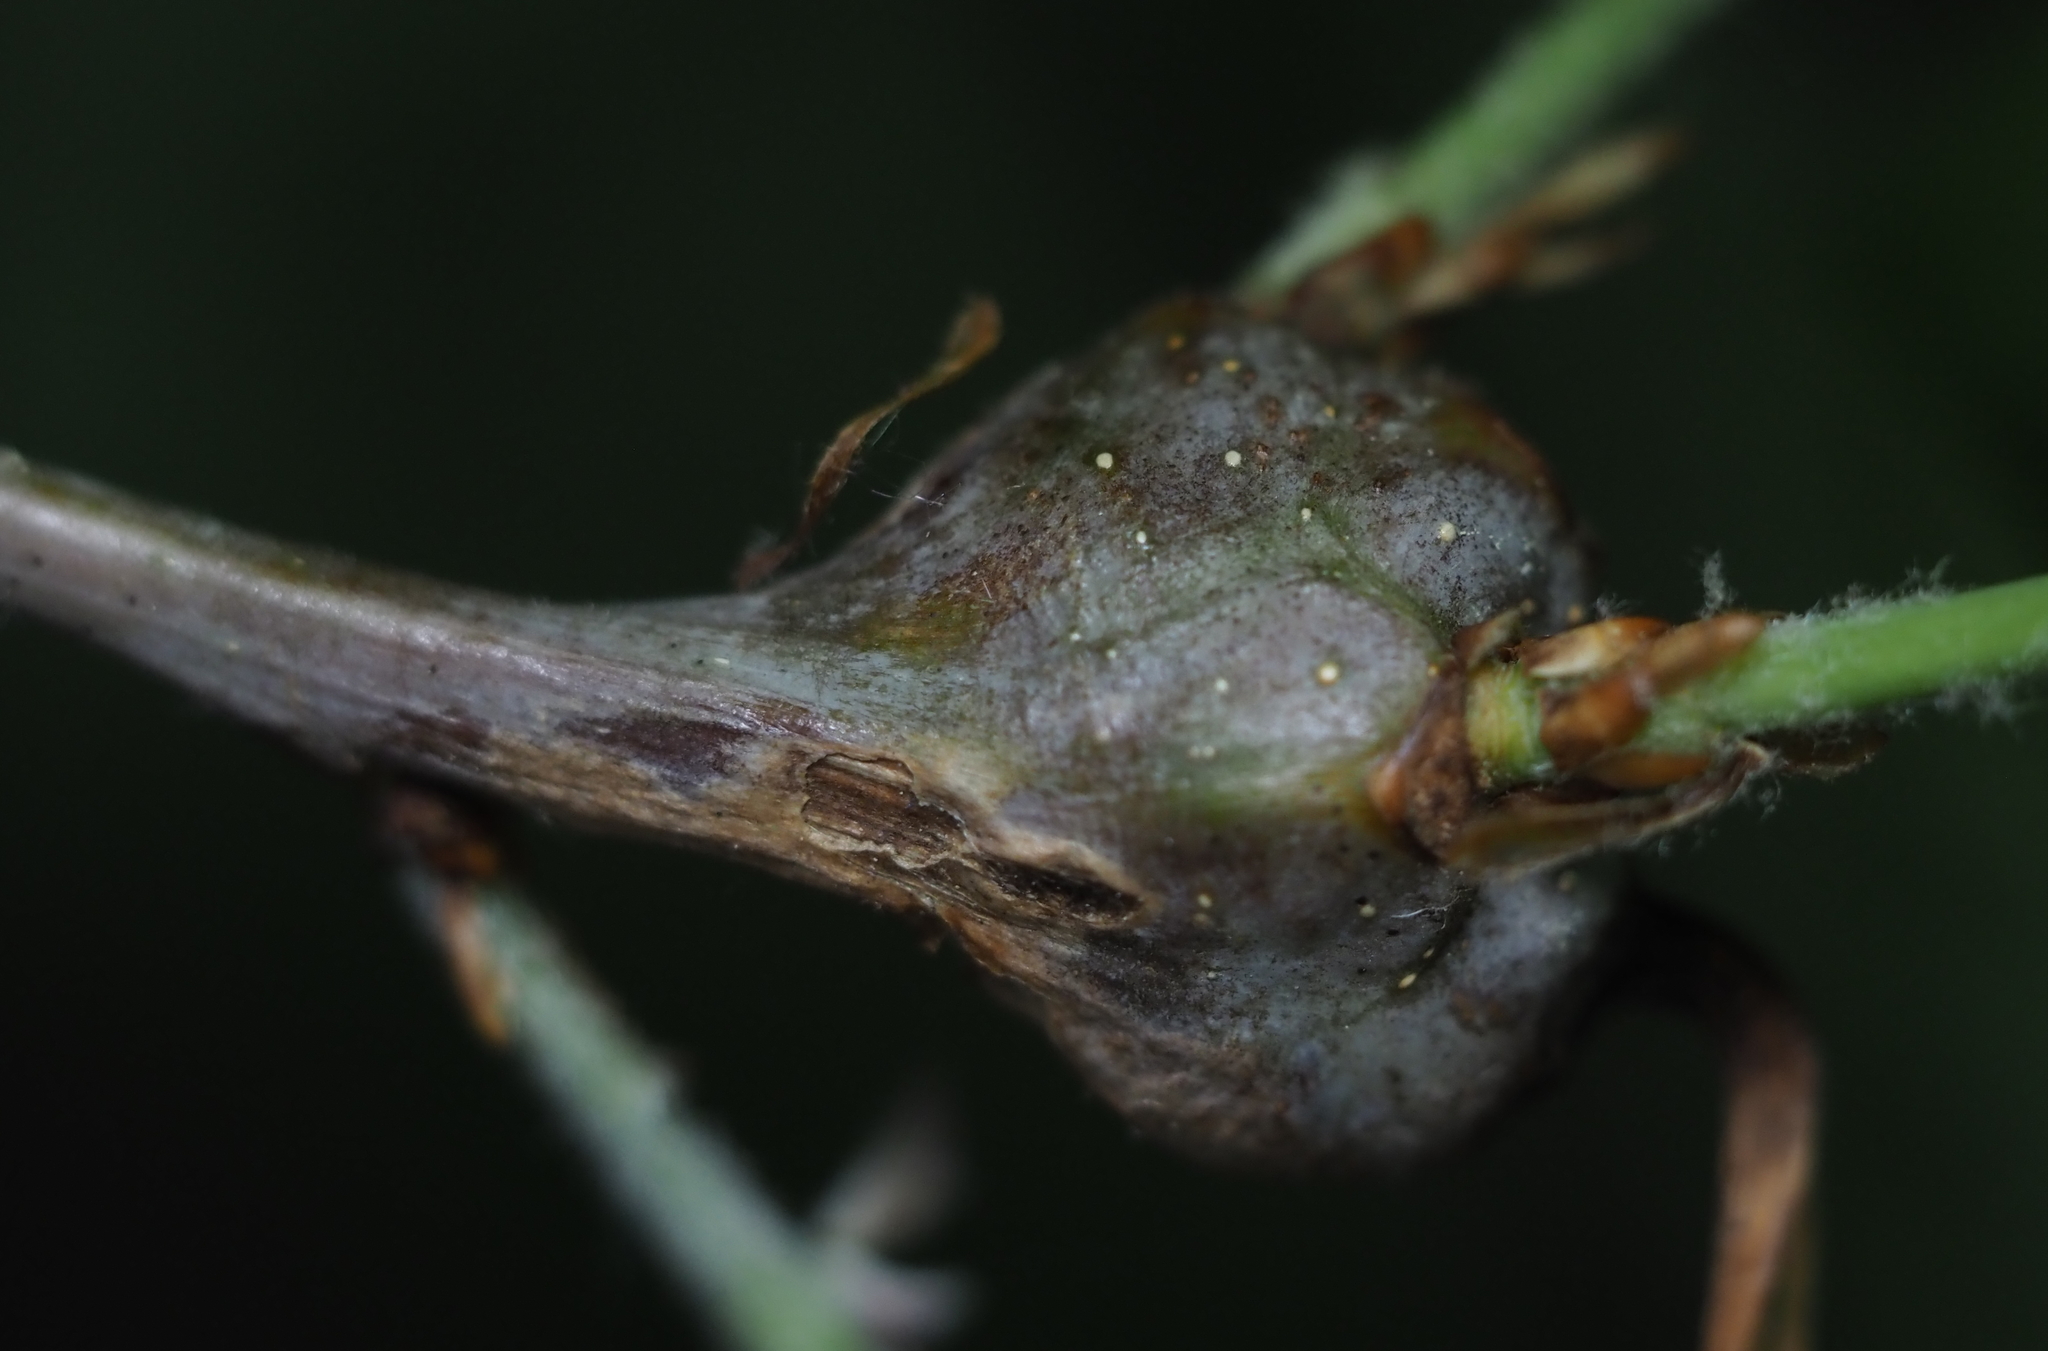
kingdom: Animalia
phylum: Arthropoda
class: Insecta
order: Hymenoptera
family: Cynipidae
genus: Callirhytis
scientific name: Callirhytis clavula
